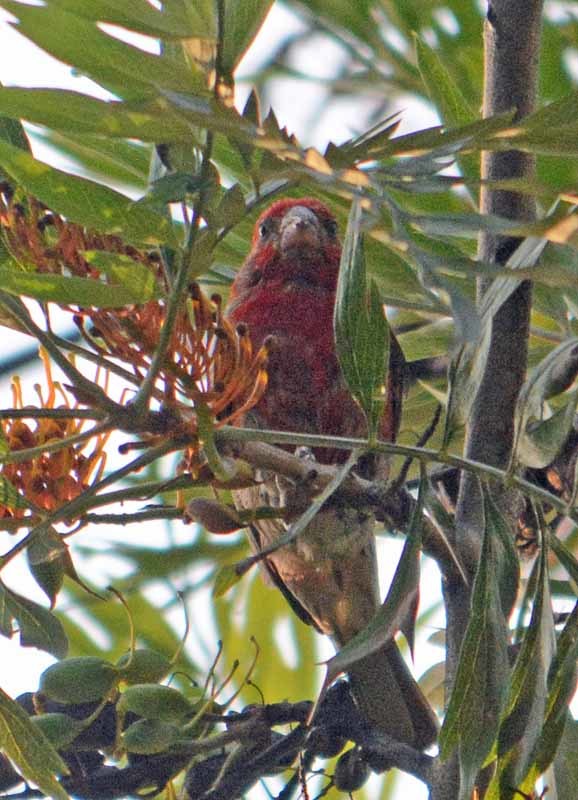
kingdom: Animalia
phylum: Chordata
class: Aves
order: Passeriformes
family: Fringillidae
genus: Haemorhous
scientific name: Haemorhous mexicanus
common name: House finch
